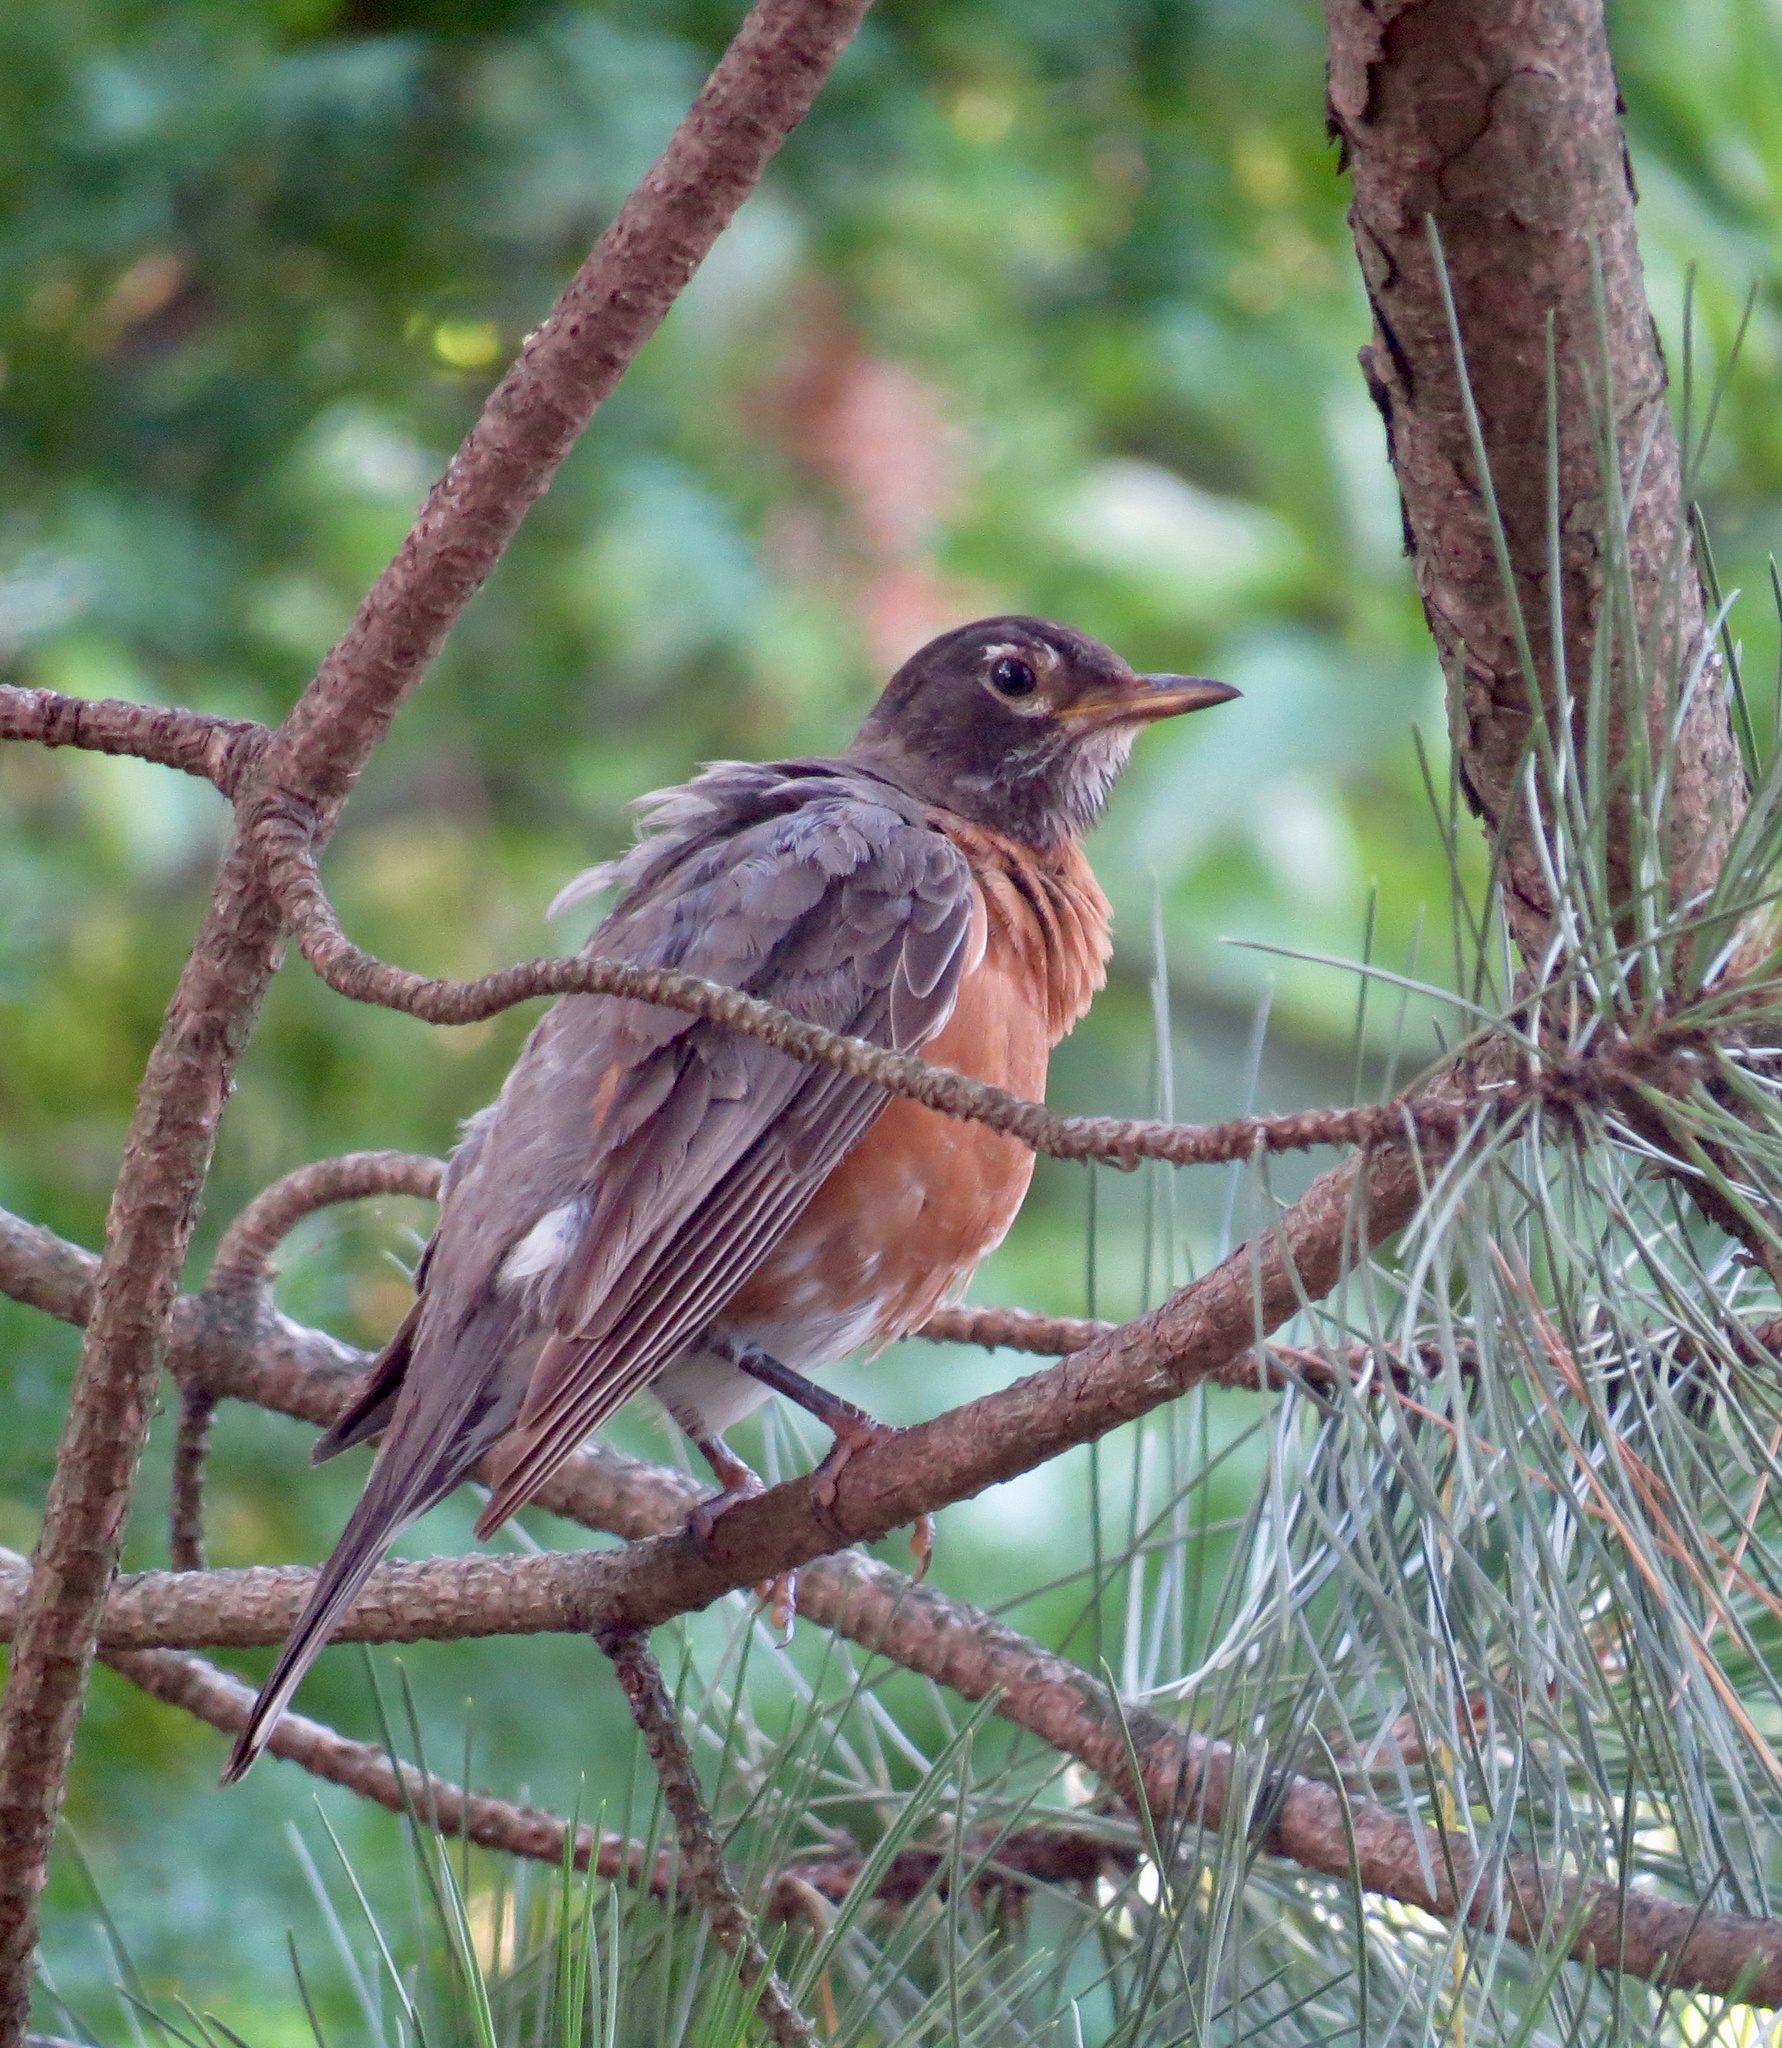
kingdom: Animalia
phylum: Chordata
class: Aves
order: Passeriformes
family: Turdidae
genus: Turdus
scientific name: Turdus migratorius
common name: American robin
